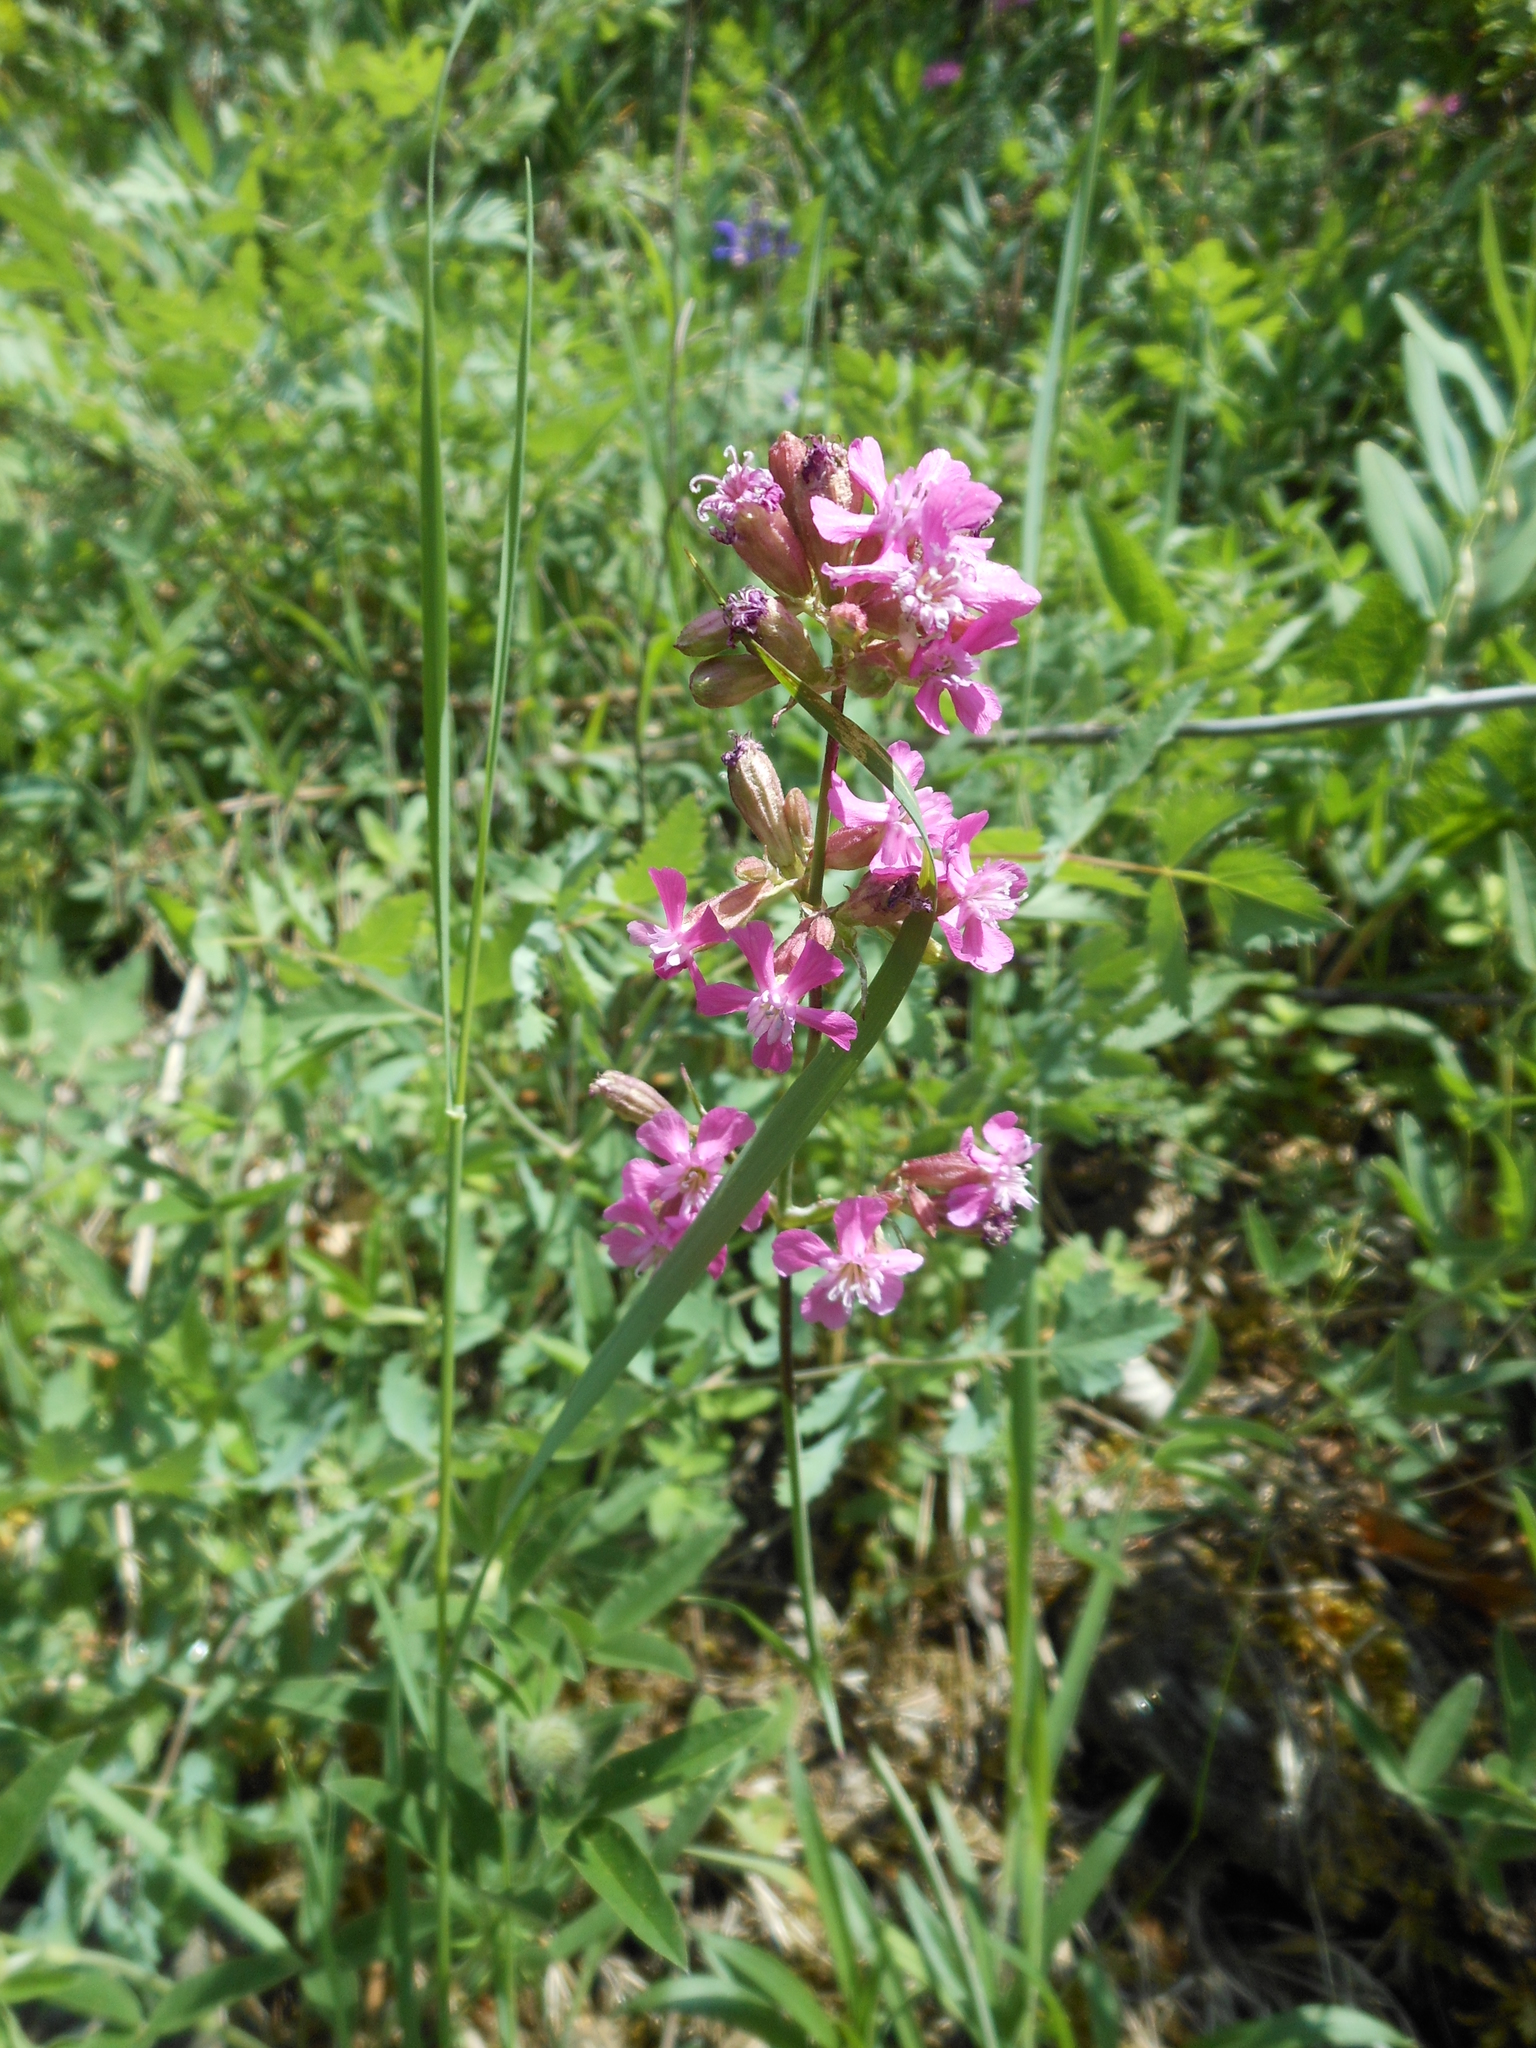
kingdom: Plantae
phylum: Tracheophyta
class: Magnoliopsida
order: Caryophyllales
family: Caryophyllaceae
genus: Viscaria
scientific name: Viscaria vulgaris
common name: Clammy campion
